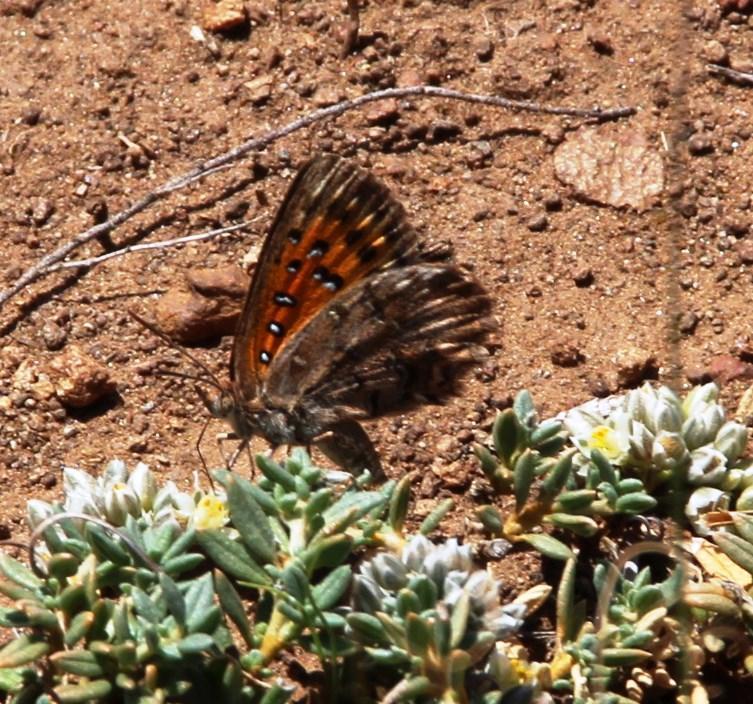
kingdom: Animalia
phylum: Arthropoda
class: Insecta
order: Lepidoptera
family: Lycaenidae
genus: Aloeides
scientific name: Aloeides vansoni
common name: Van son's copper
